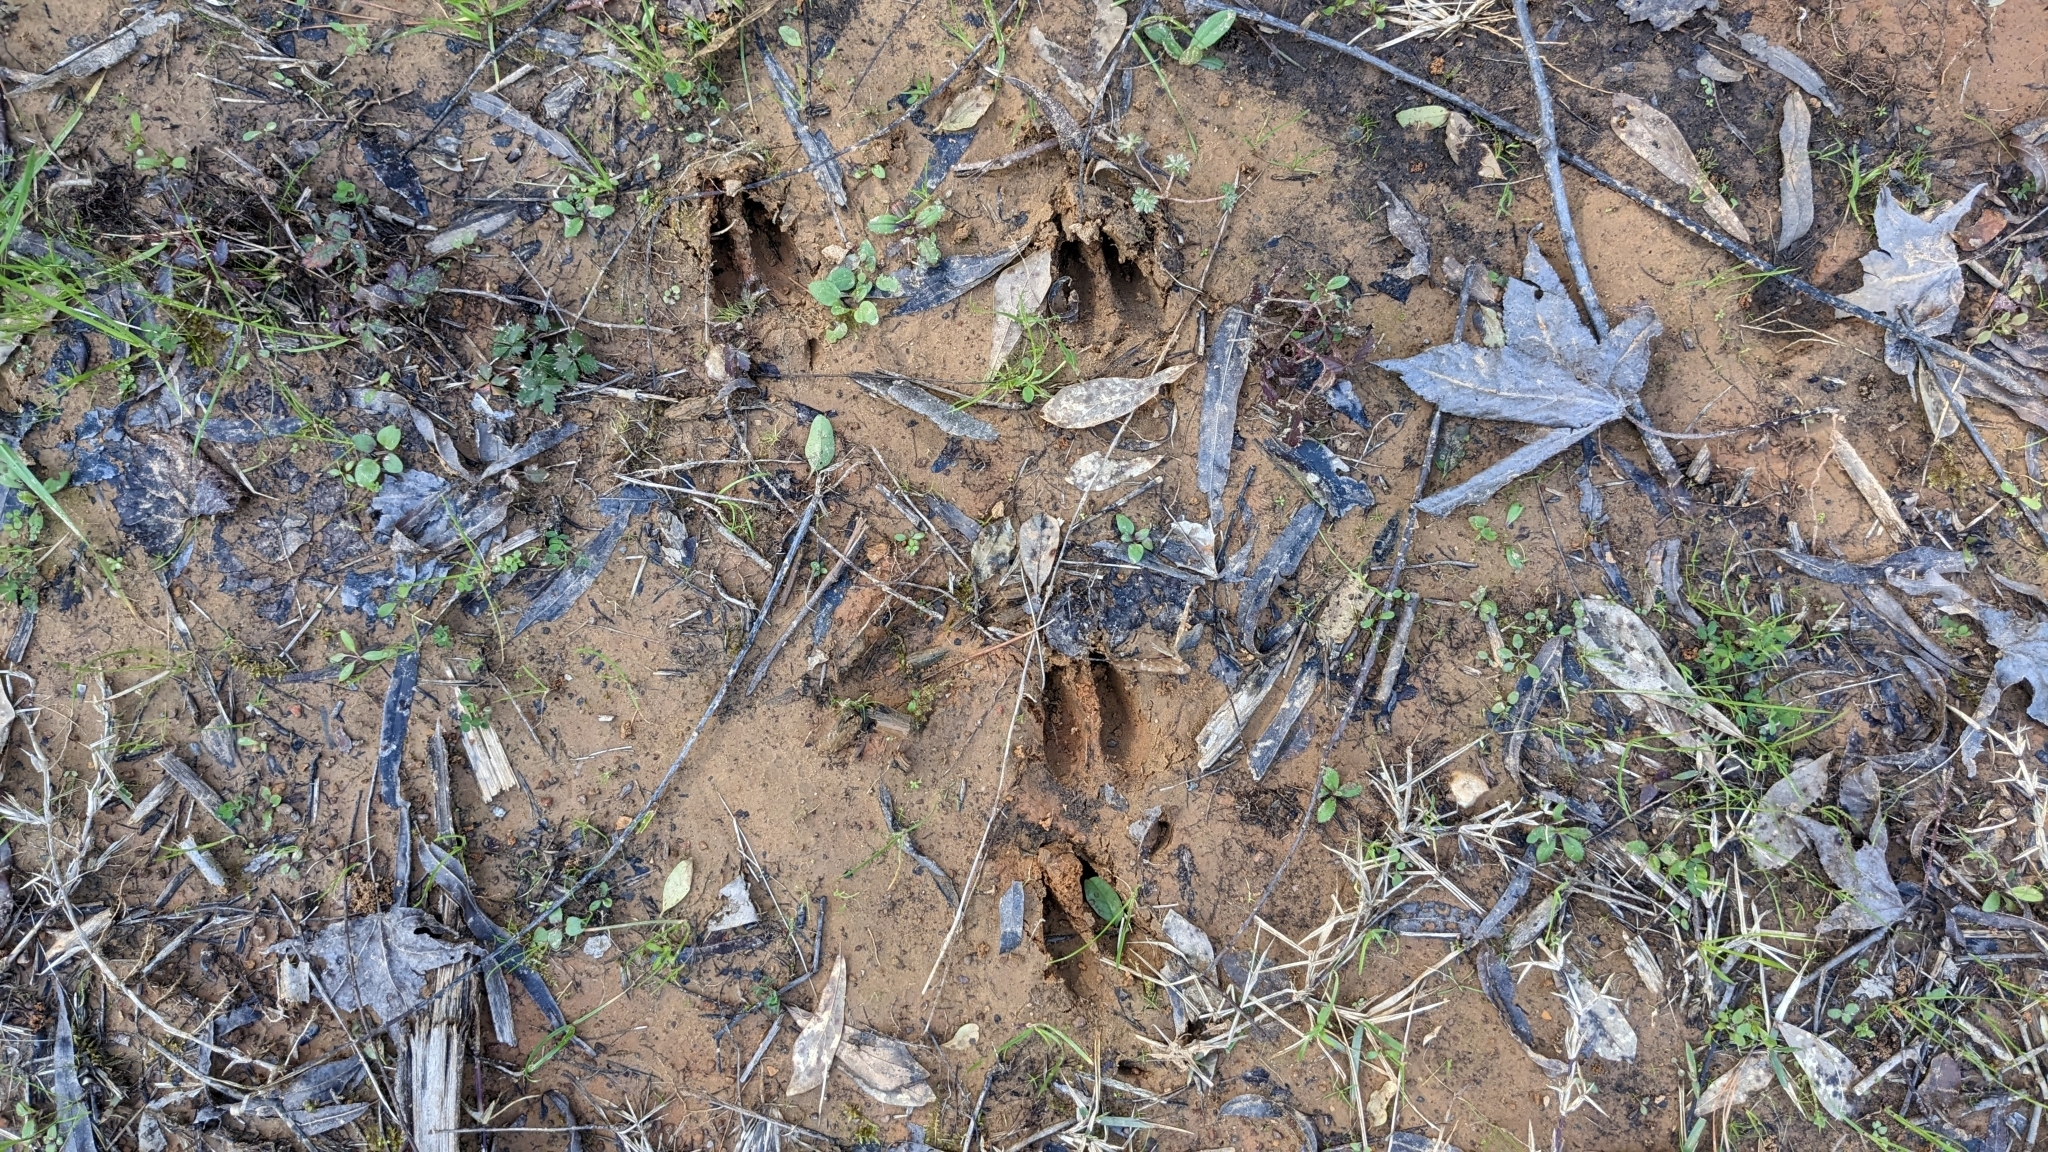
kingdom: Animalia
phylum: Chordata
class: Mammalia
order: Artiodactyla
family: Cervidae
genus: Odocoileus
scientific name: Odocoileus virginianus
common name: White-tailed deer
